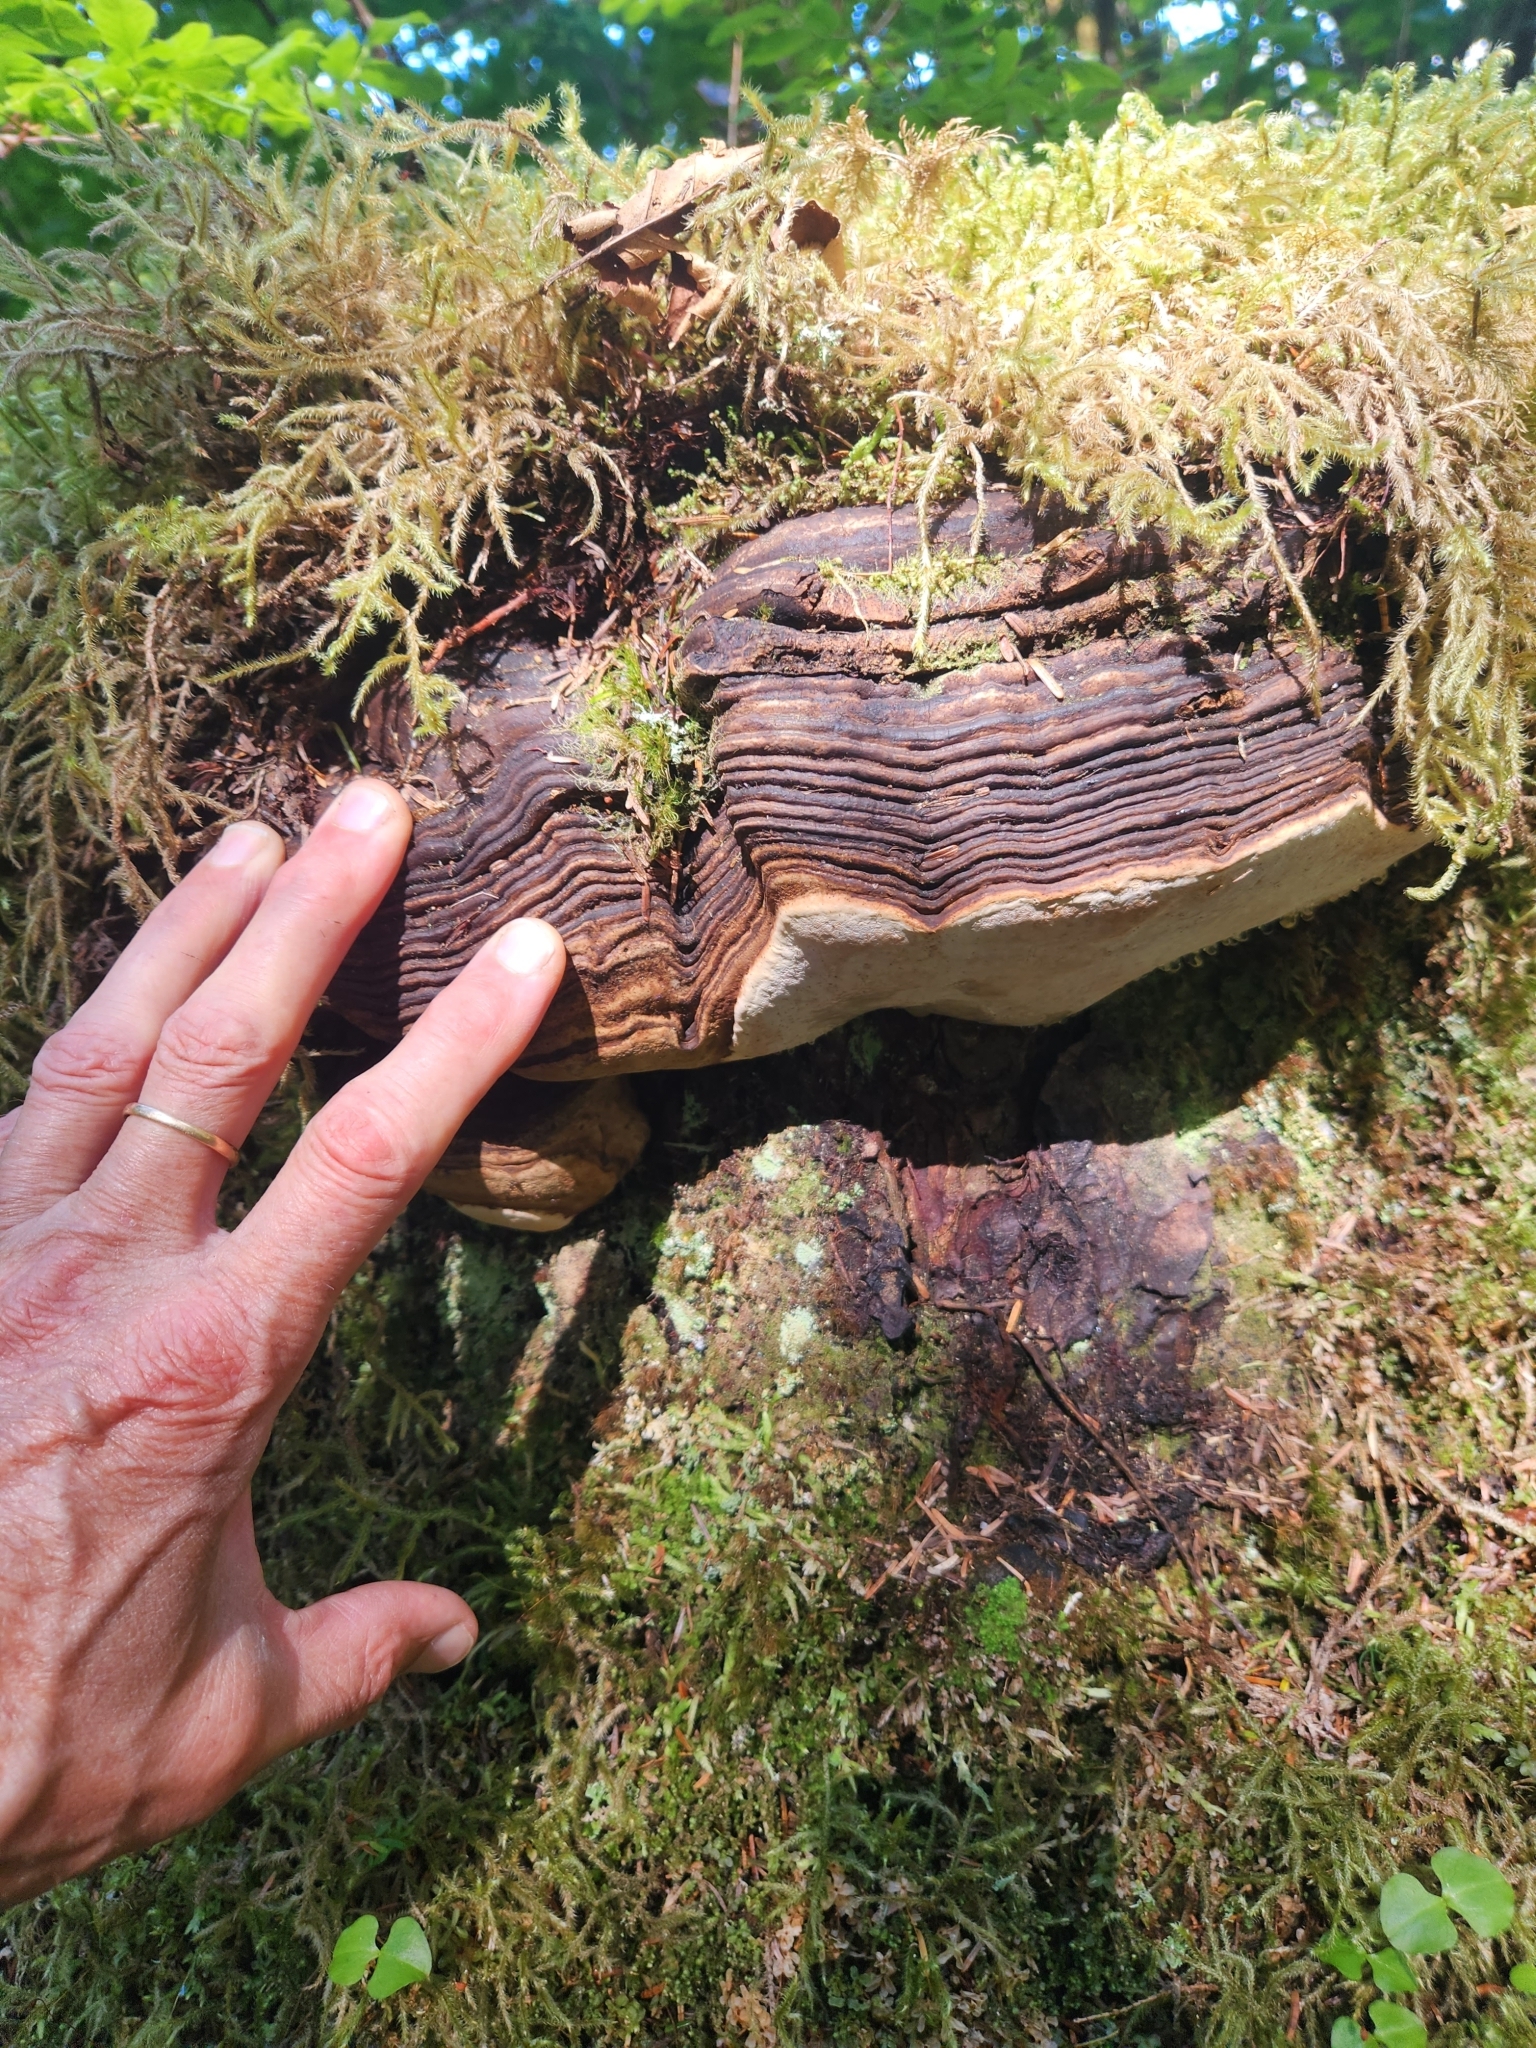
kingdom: Fungi
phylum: Basidiomycota
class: Agaricomycetes
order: Polyporales
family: Fomitopsidaceae
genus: Fomitopsis
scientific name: Fomitopsis ochracea
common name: American brown fomitopsis
